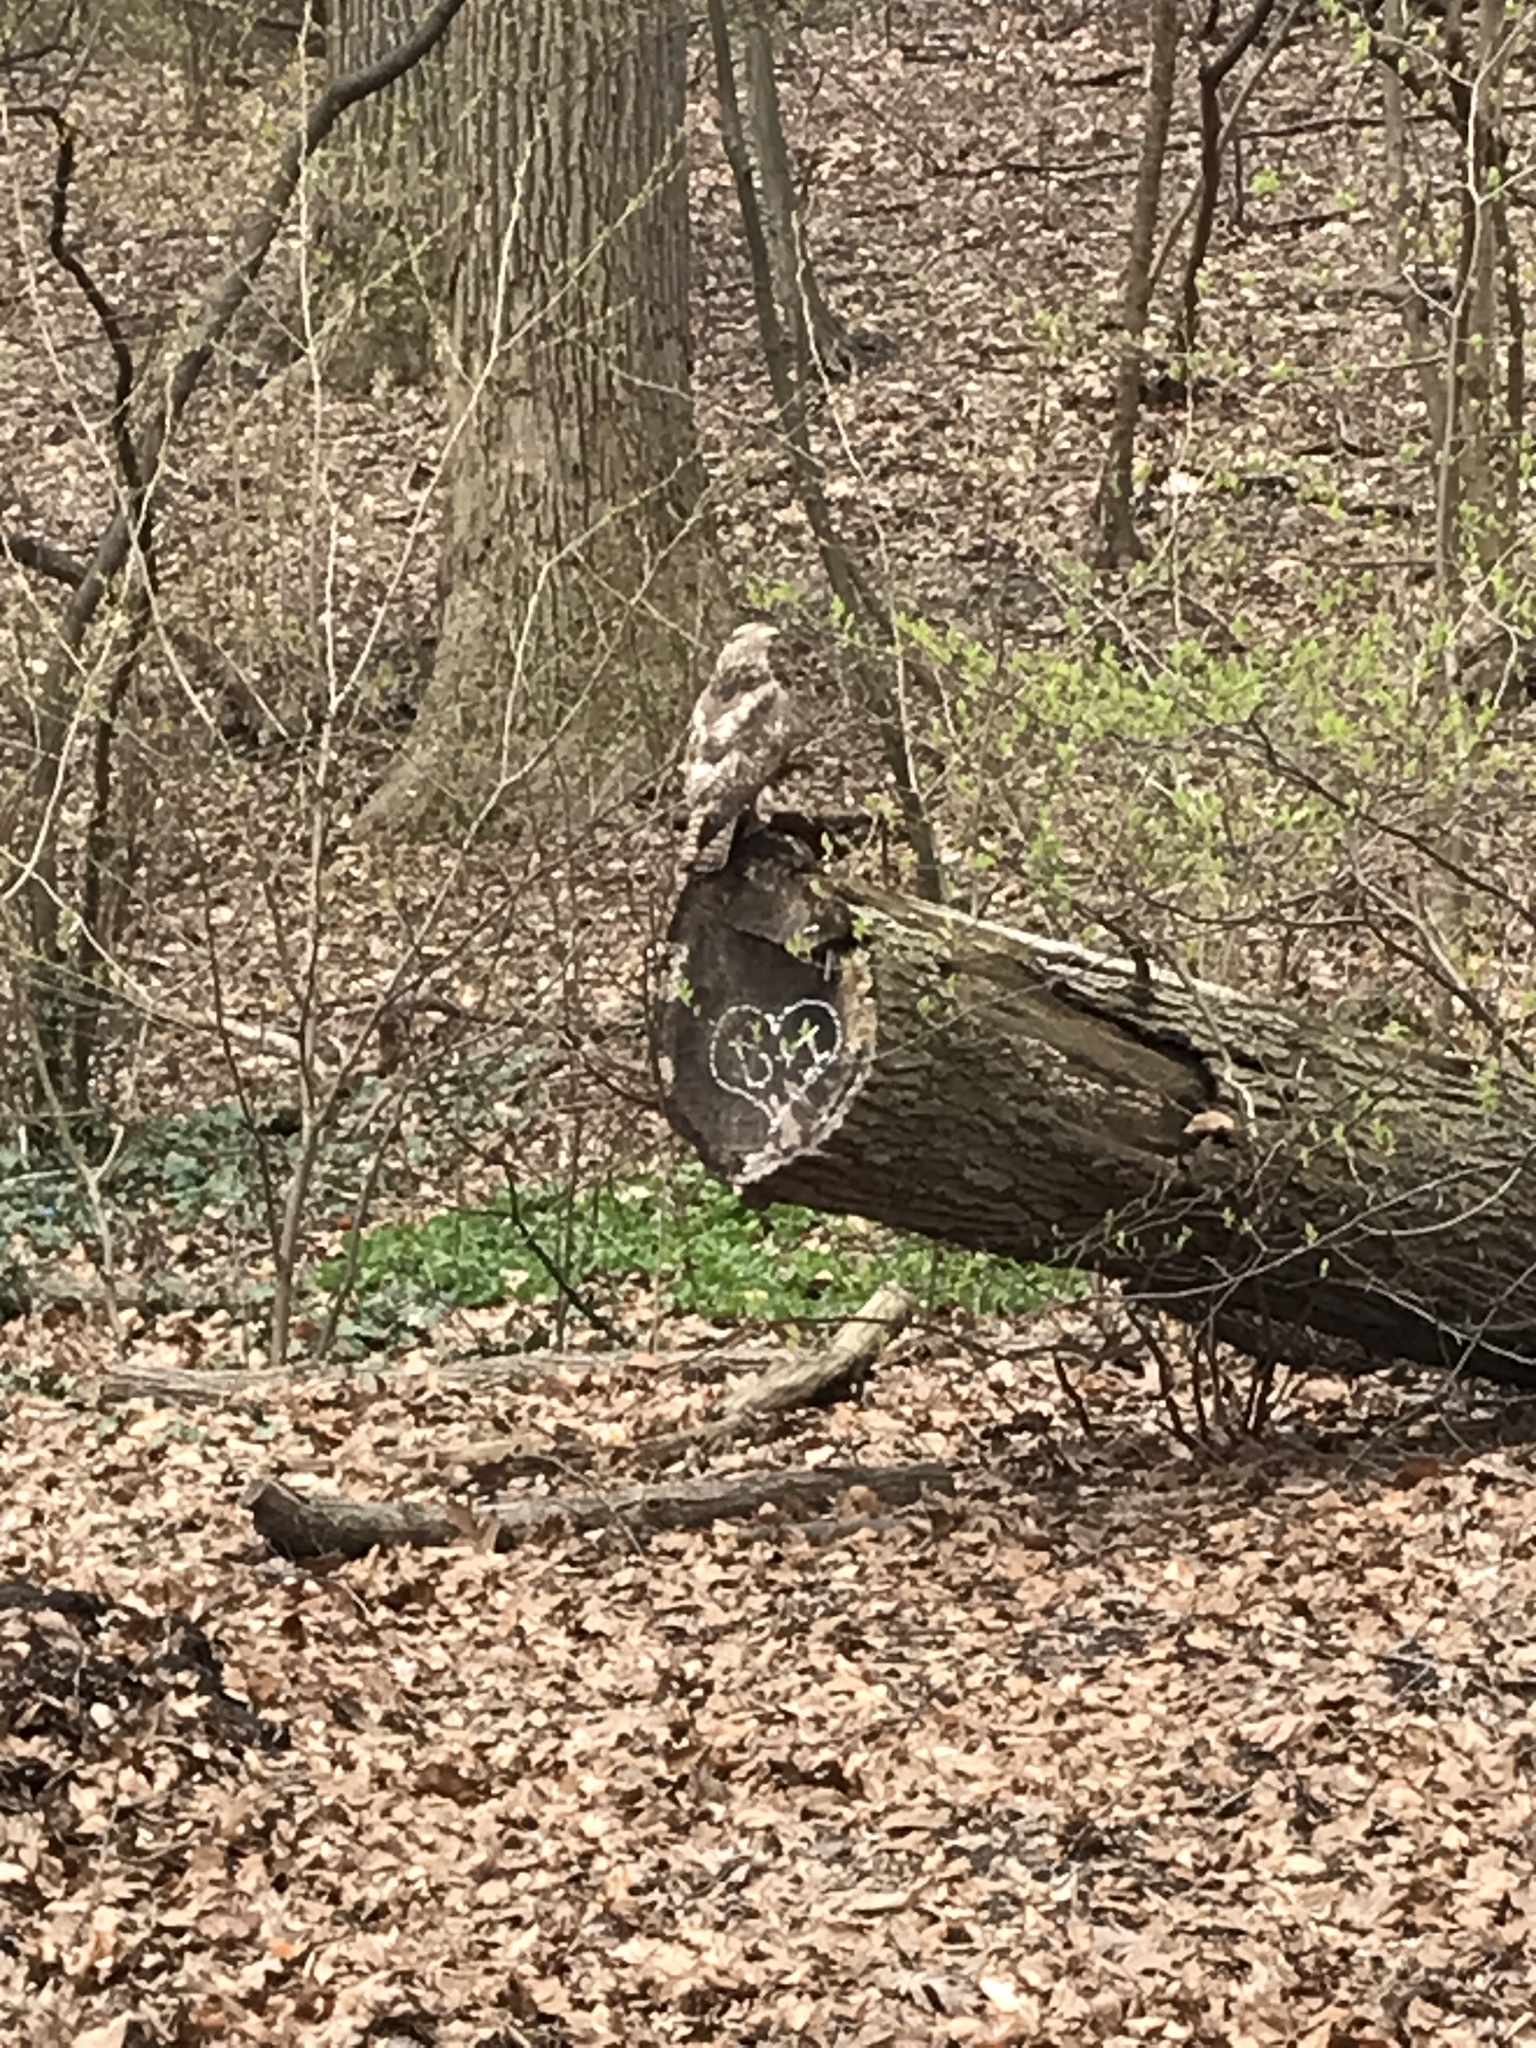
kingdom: Animalia
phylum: Chordata
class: Aves
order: Accipitriformes
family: Accipitridae
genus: Buteo
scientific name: Buteo jamaicensis
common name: Red-tailed hawk
